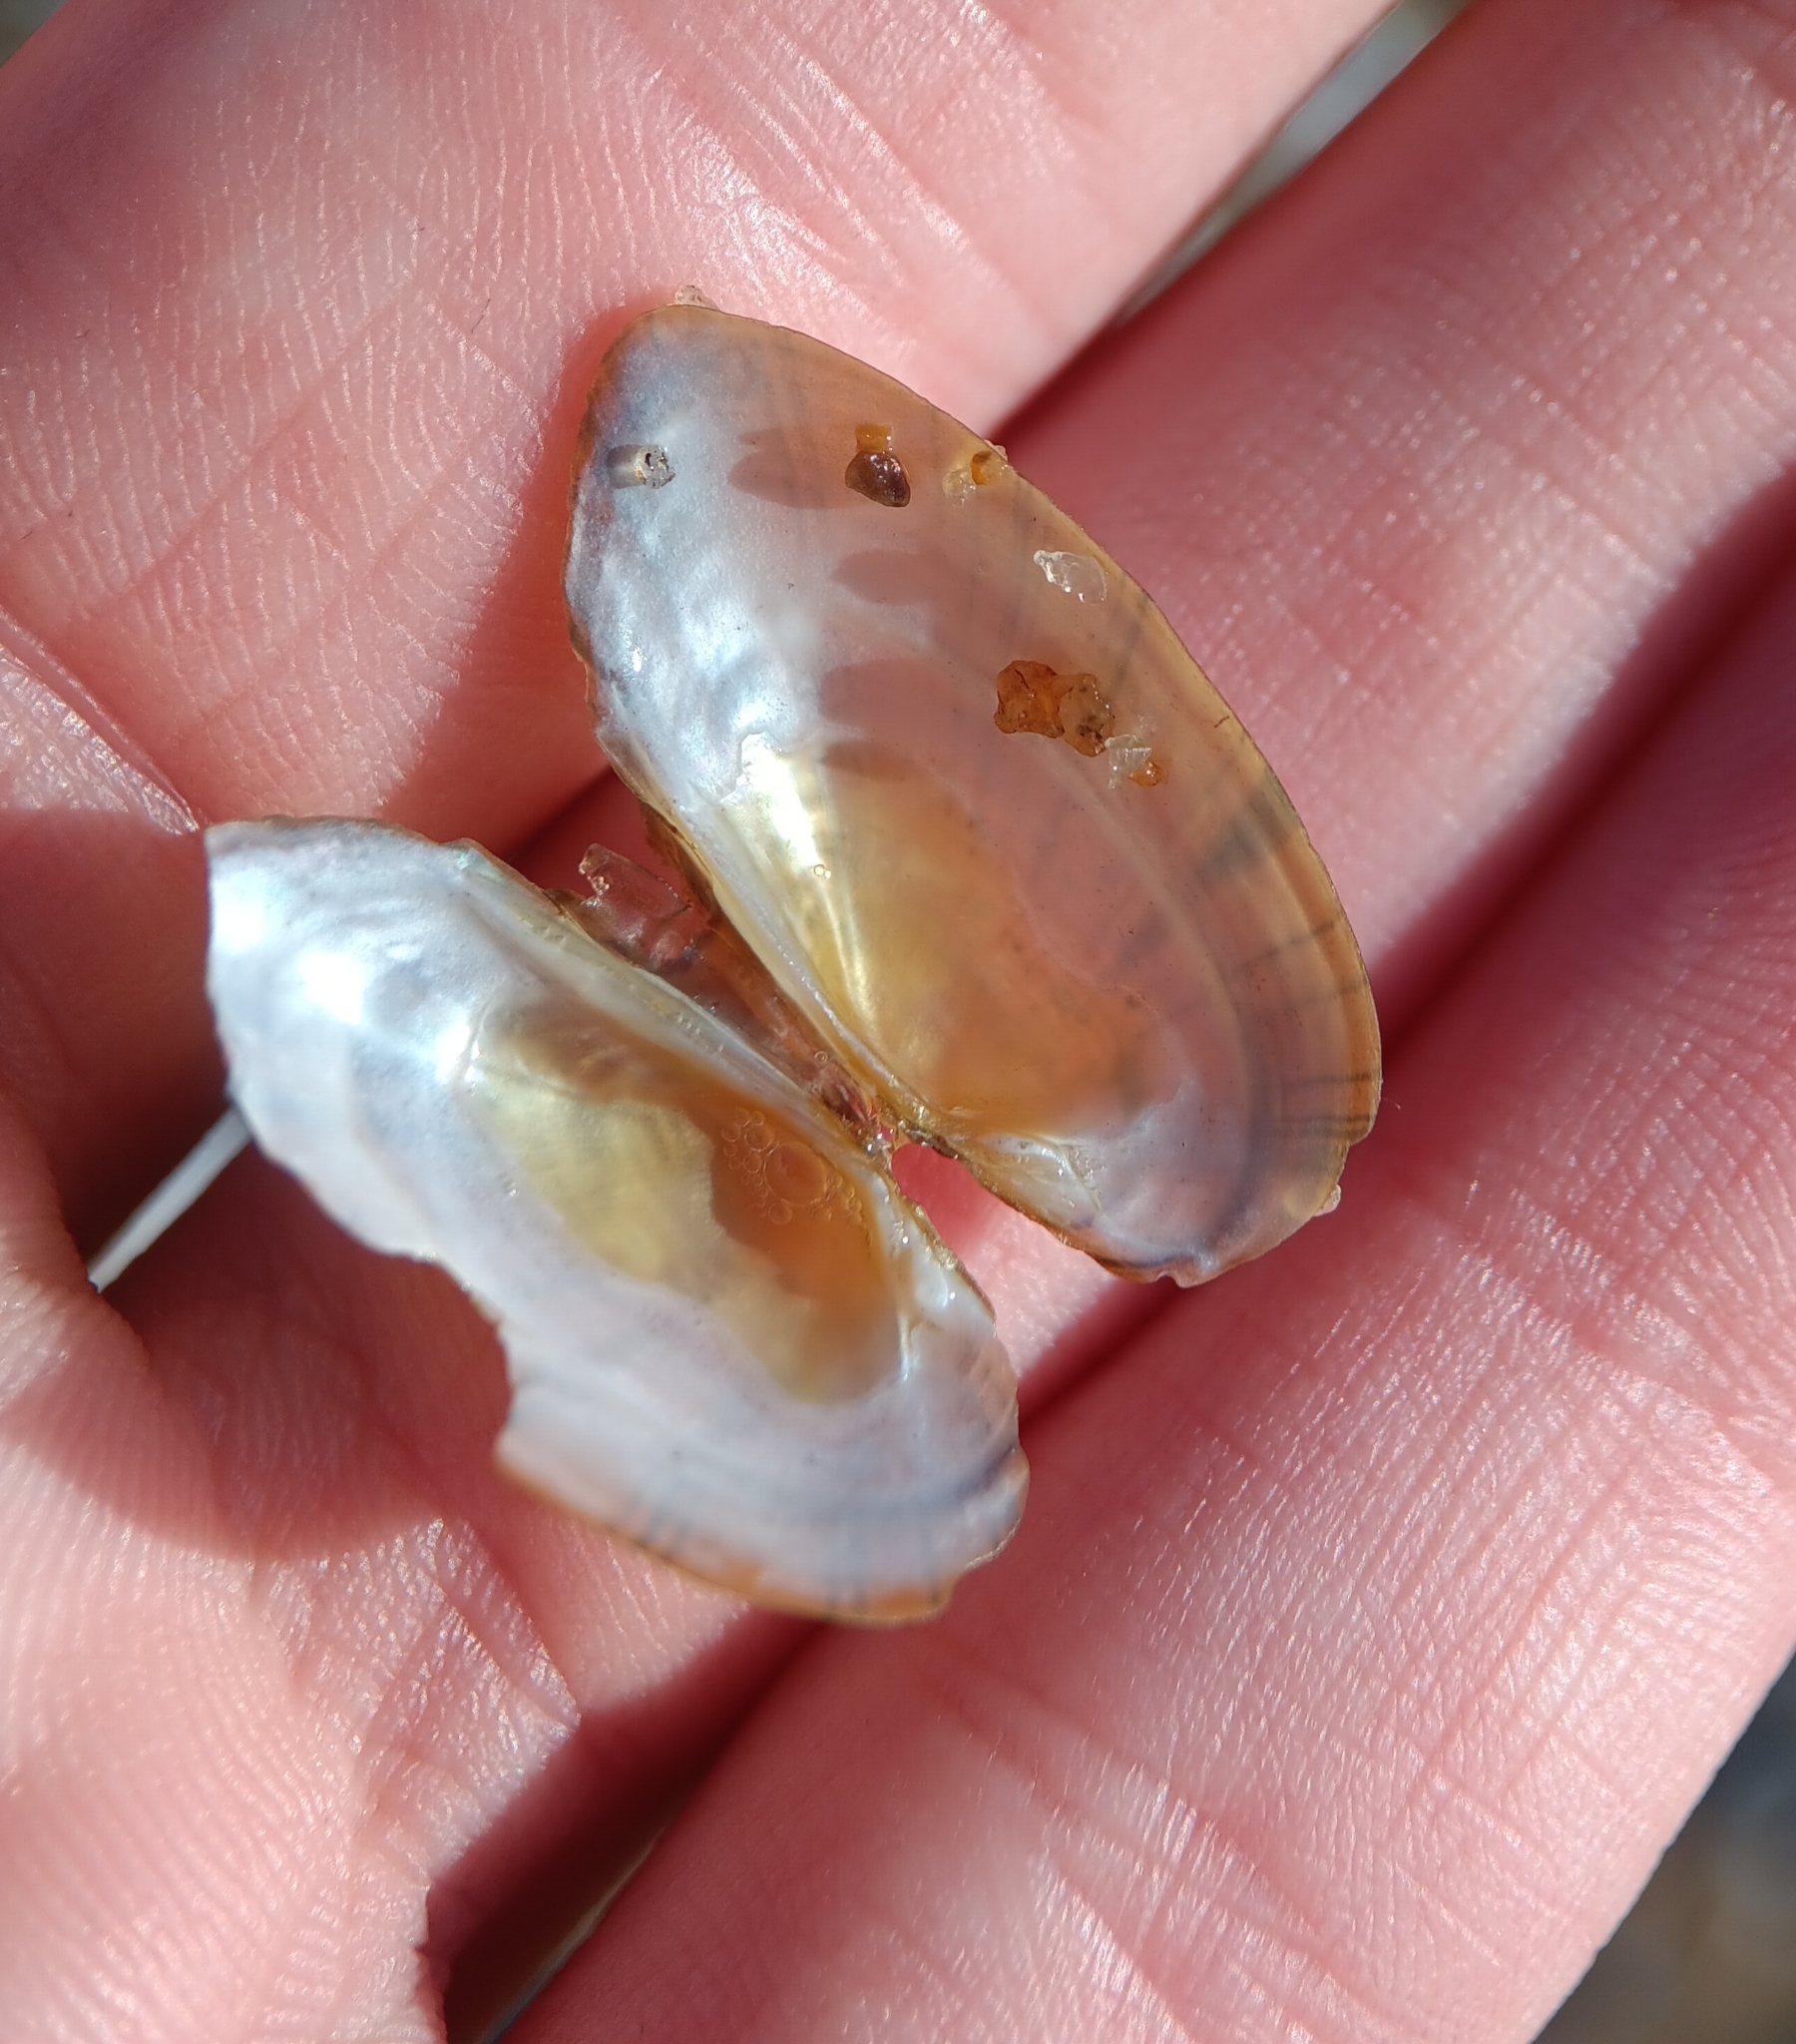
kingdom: Animalia
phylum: Mollusca
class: Bivalvia
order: Unionida
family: Unionidae
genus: Elliptio
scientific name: Elliptio complanata
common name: Eastern elliptio
